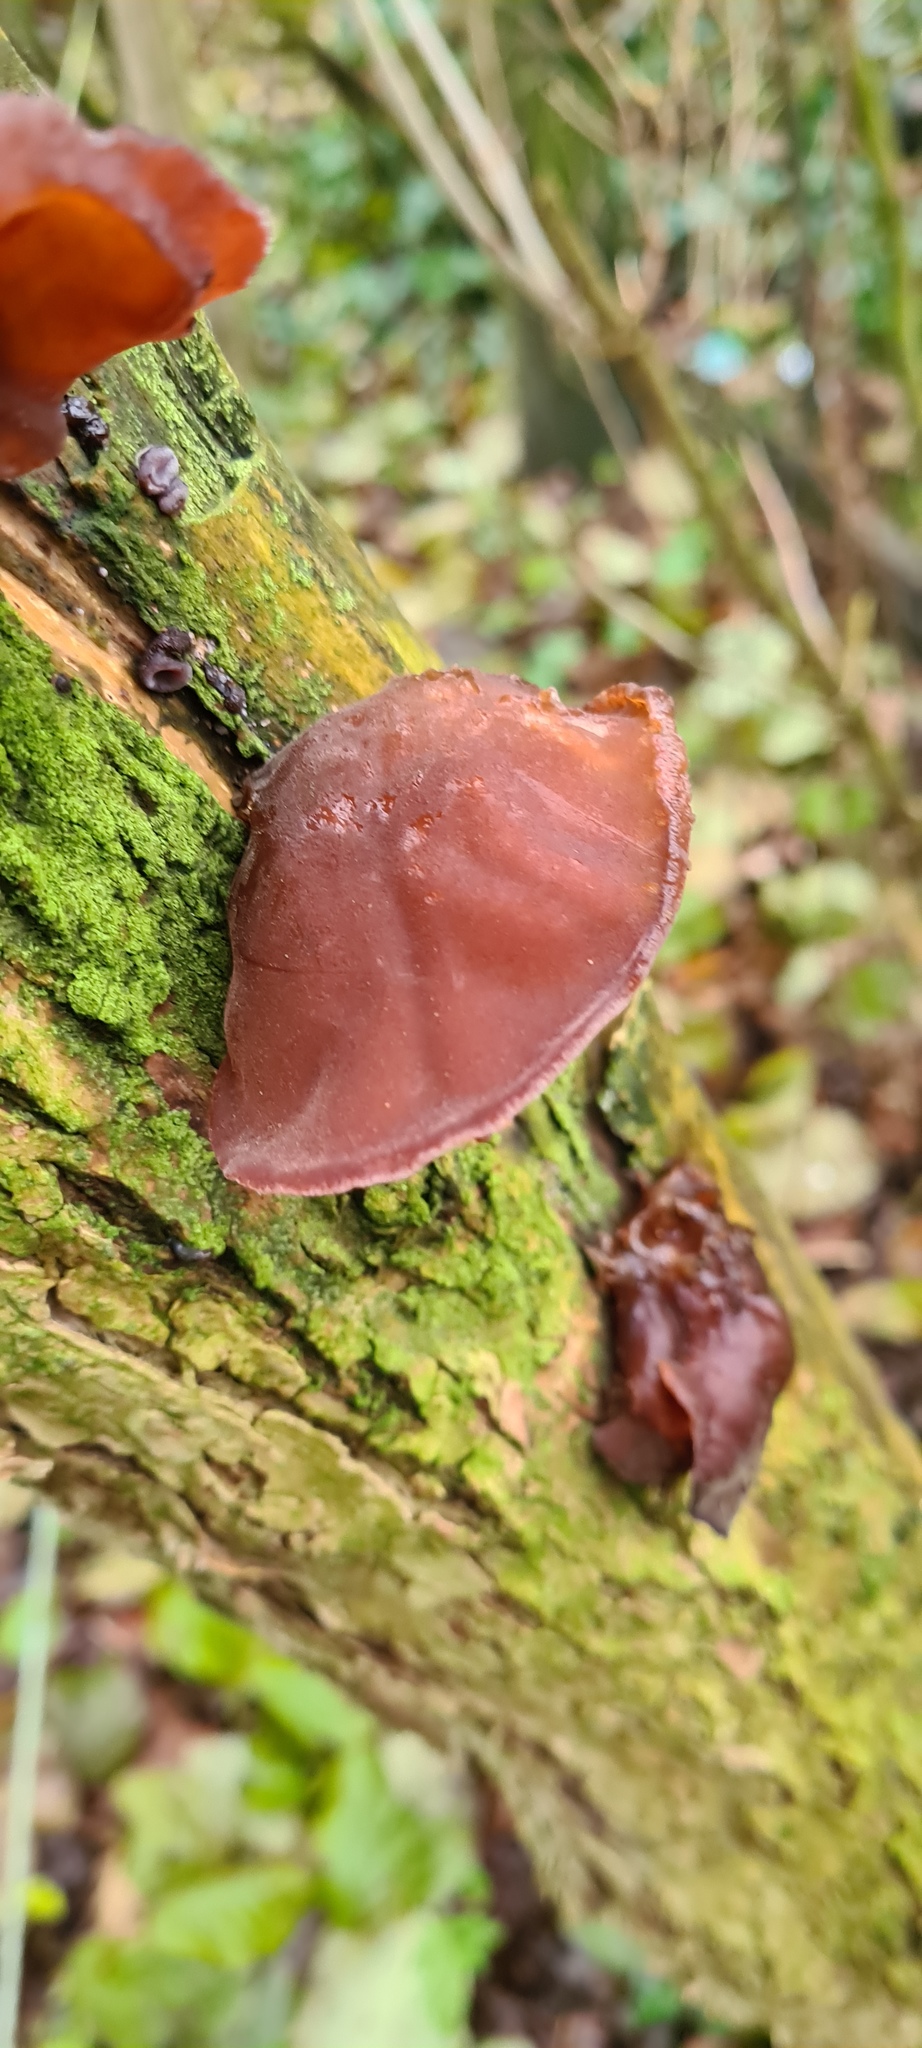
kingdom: Fungi
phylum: Basidiomycota
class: Agaricomycetes
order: Auriculariales
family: Auriculariaceae
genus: Auricularia
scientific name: Auricularia auricula-judae
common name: Jelly ear
